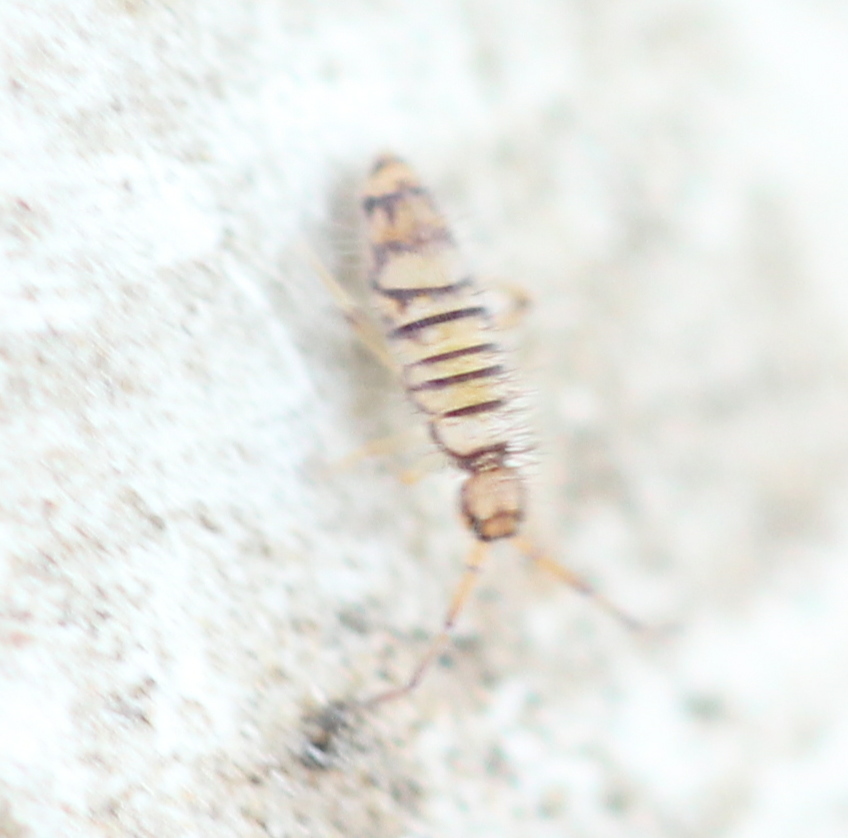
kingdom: Animalia
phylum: Arthropoda
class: Collembola
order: Entomobryomorpha
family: Entomobryidae
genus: Entomobrya
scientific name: Entomobrya atrocincta
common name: Springtail
